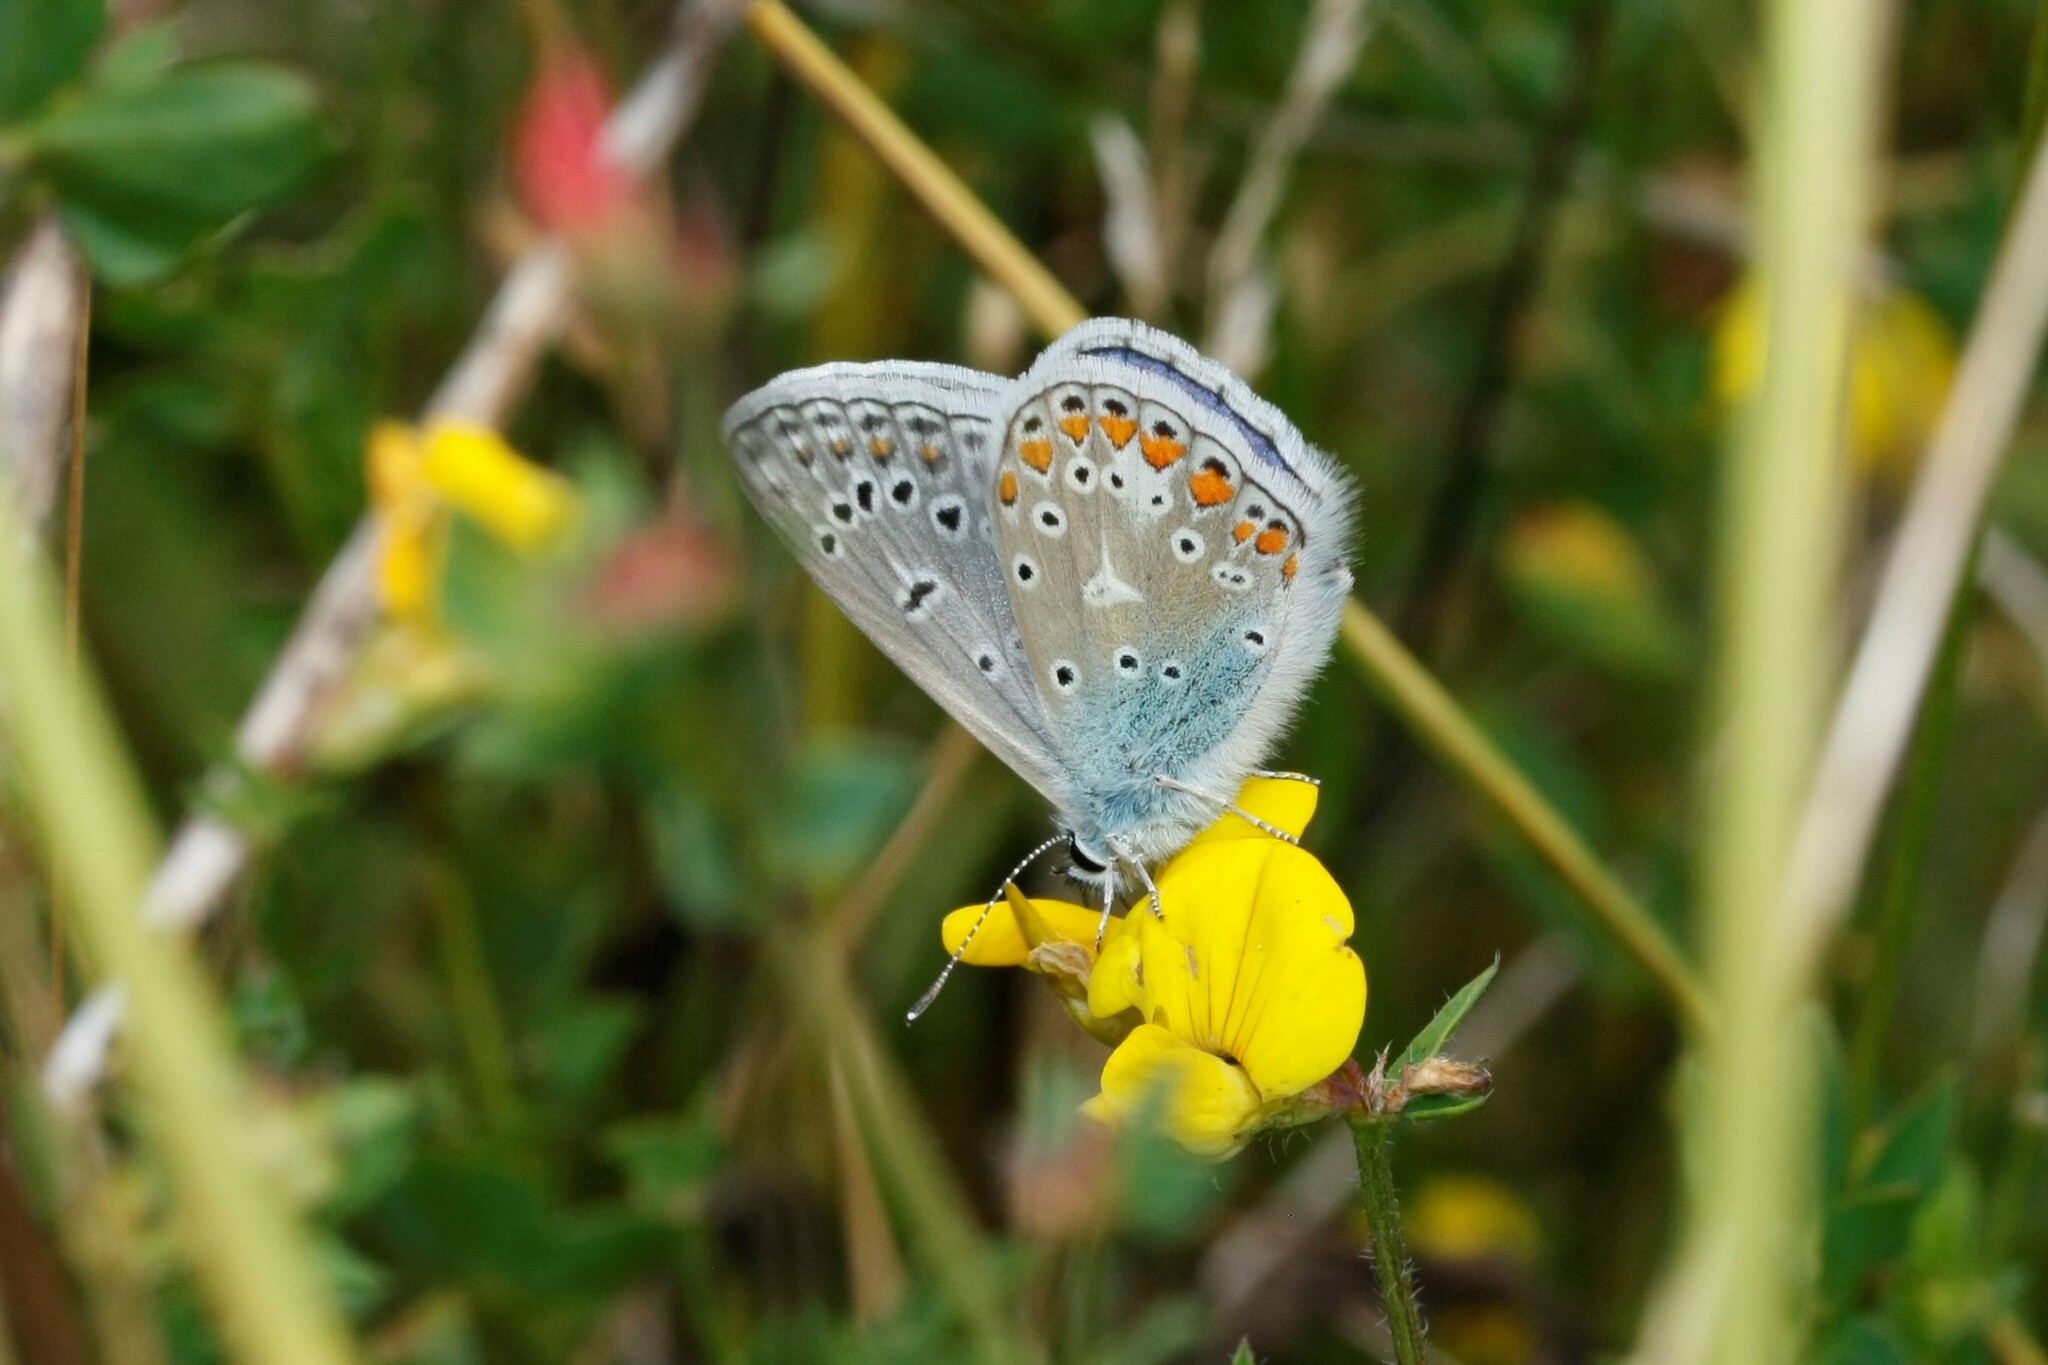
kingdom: Animalia
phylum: Arthropoda
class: Insecta
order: Lepidoptera
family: Lycaenidae
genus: Polyommatus
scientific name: Polyommatus icarus
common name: Common blue
